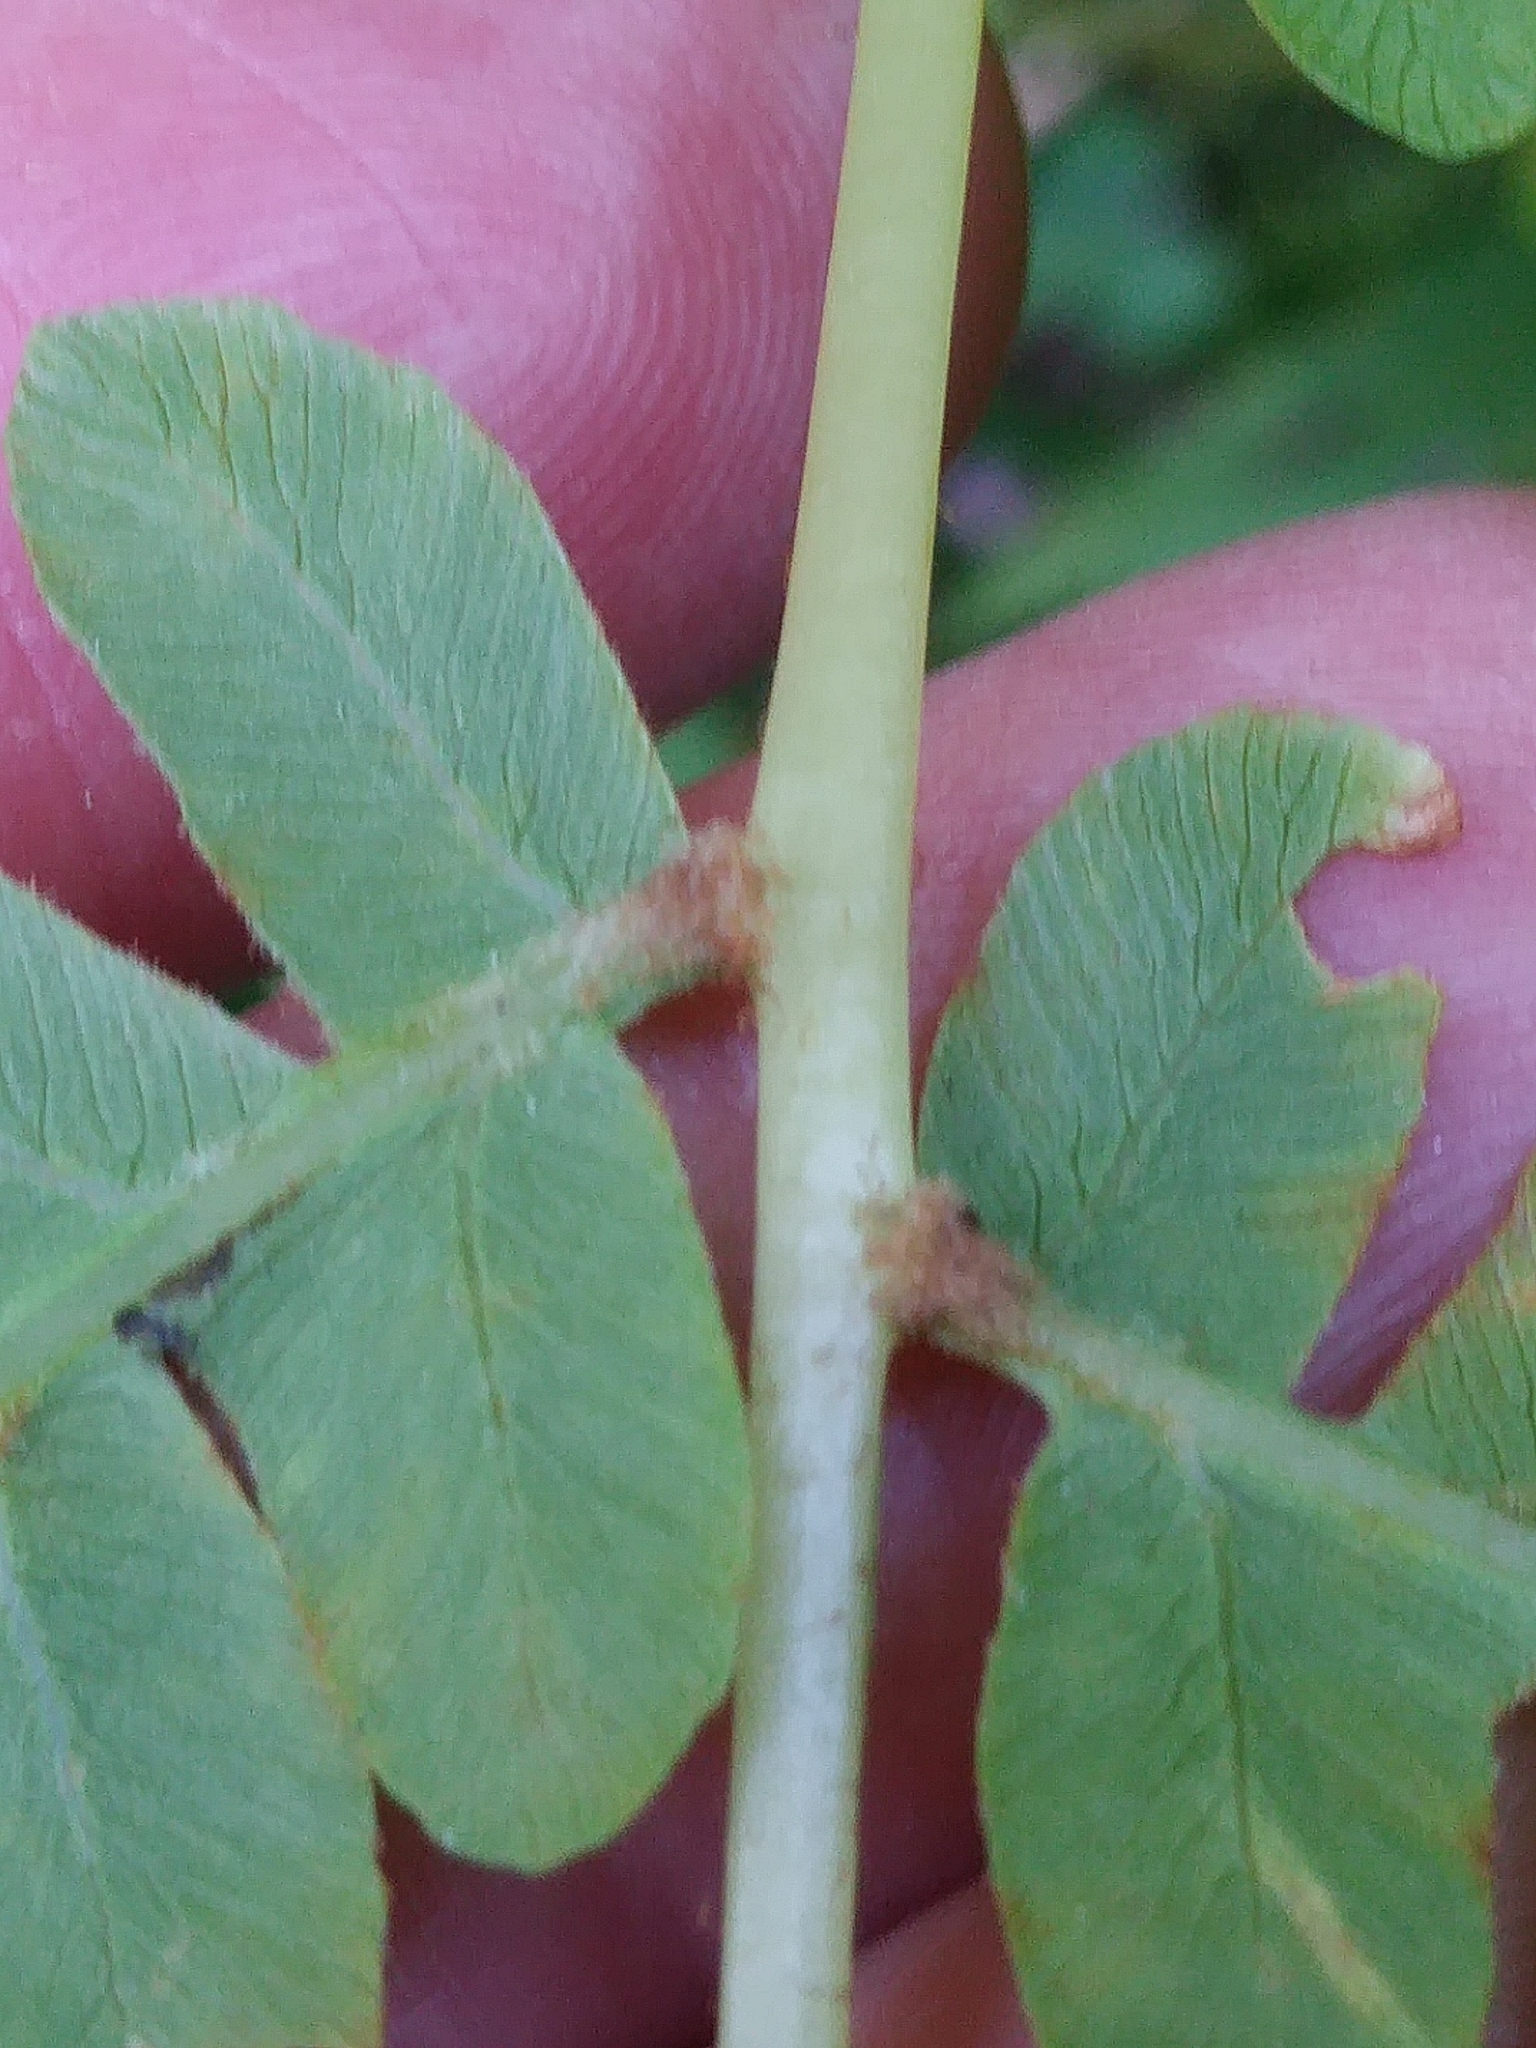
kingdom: Plantae
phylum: Tracheophyta
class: Polypodiopsida
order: Osmundales
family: Osmundaceae
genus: Osmundastrum
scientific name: Osmundastrum cinnamomeum
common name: Cinnamon fern
